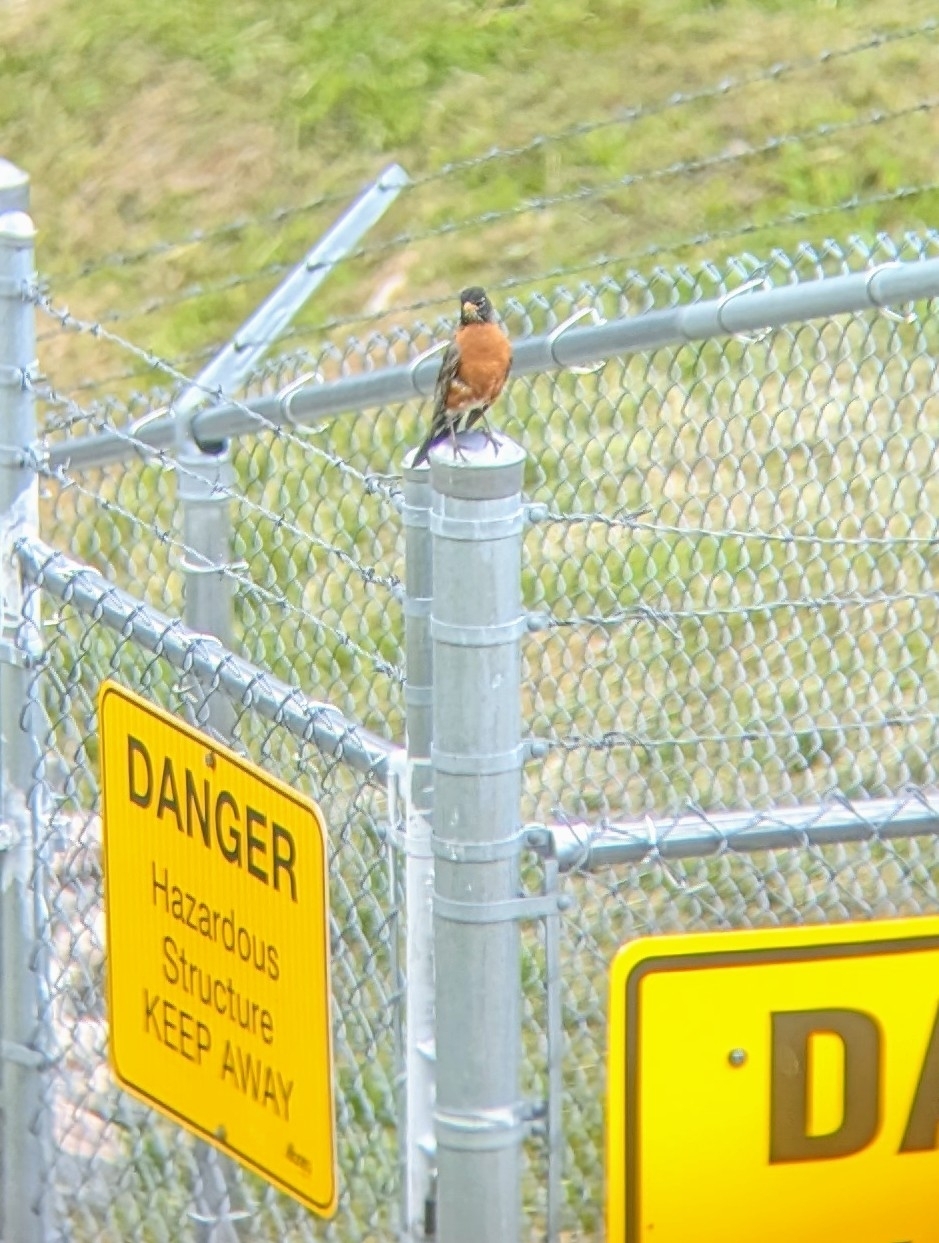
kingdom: Animalia
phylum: Chordata
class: Aves
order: Passeriformes
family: Turdidae
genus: Turdus
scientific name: Turdus migratorius
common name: American robin
